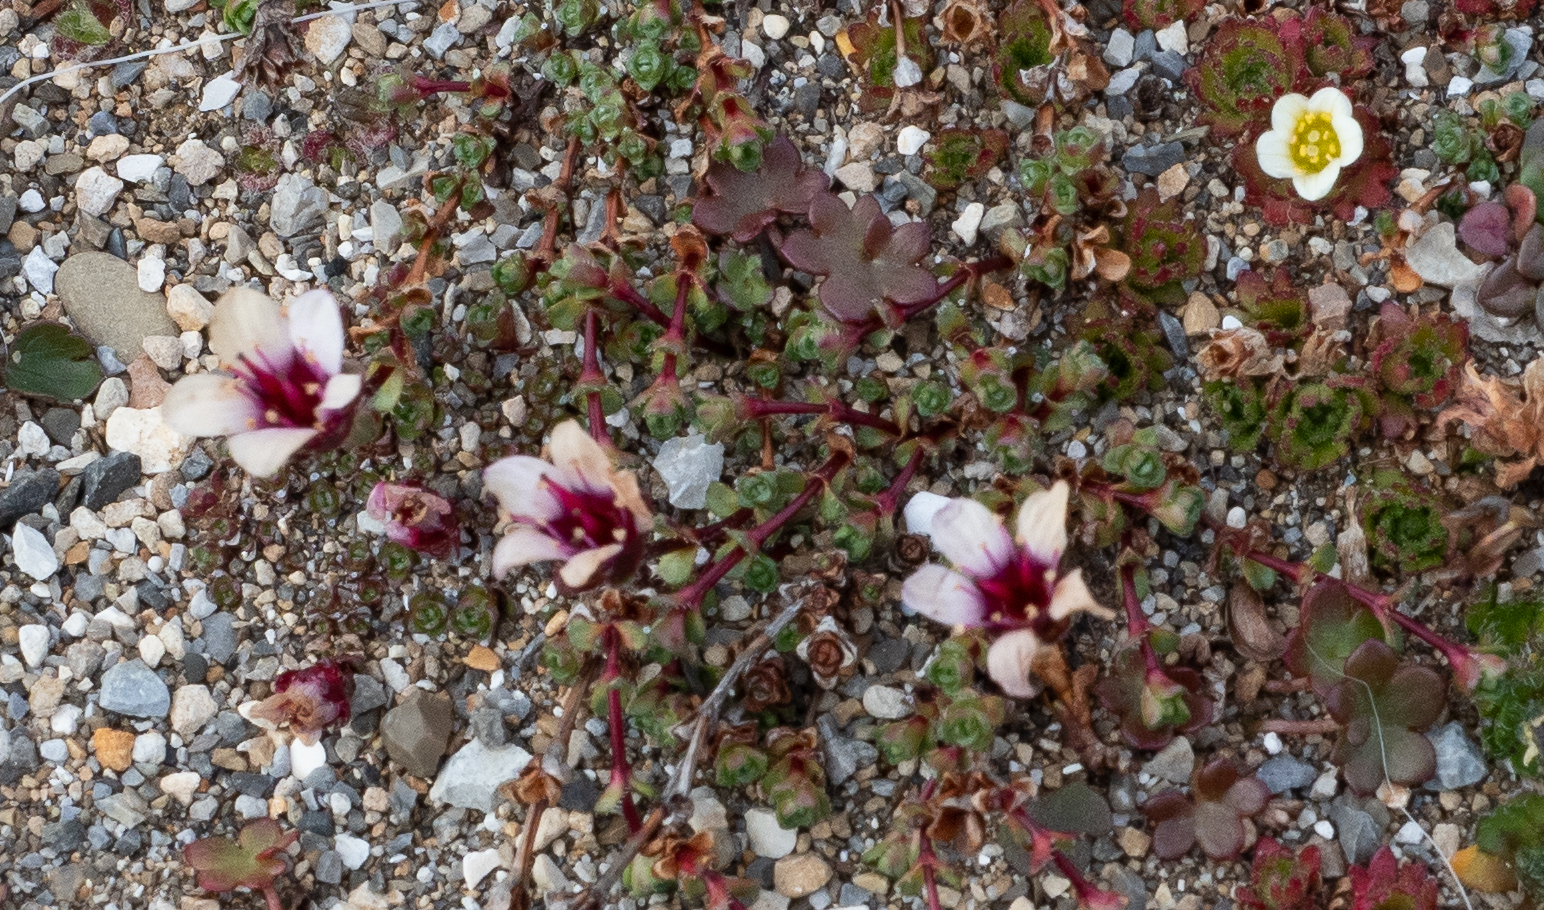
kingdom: Plantae
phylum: Tracheophyta
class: Magnoliopsida
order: Saxifragales
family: Saxifragaceae
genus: Saxifraga
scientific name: Saxifraga oppositifolia
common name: Purple saxifrage
